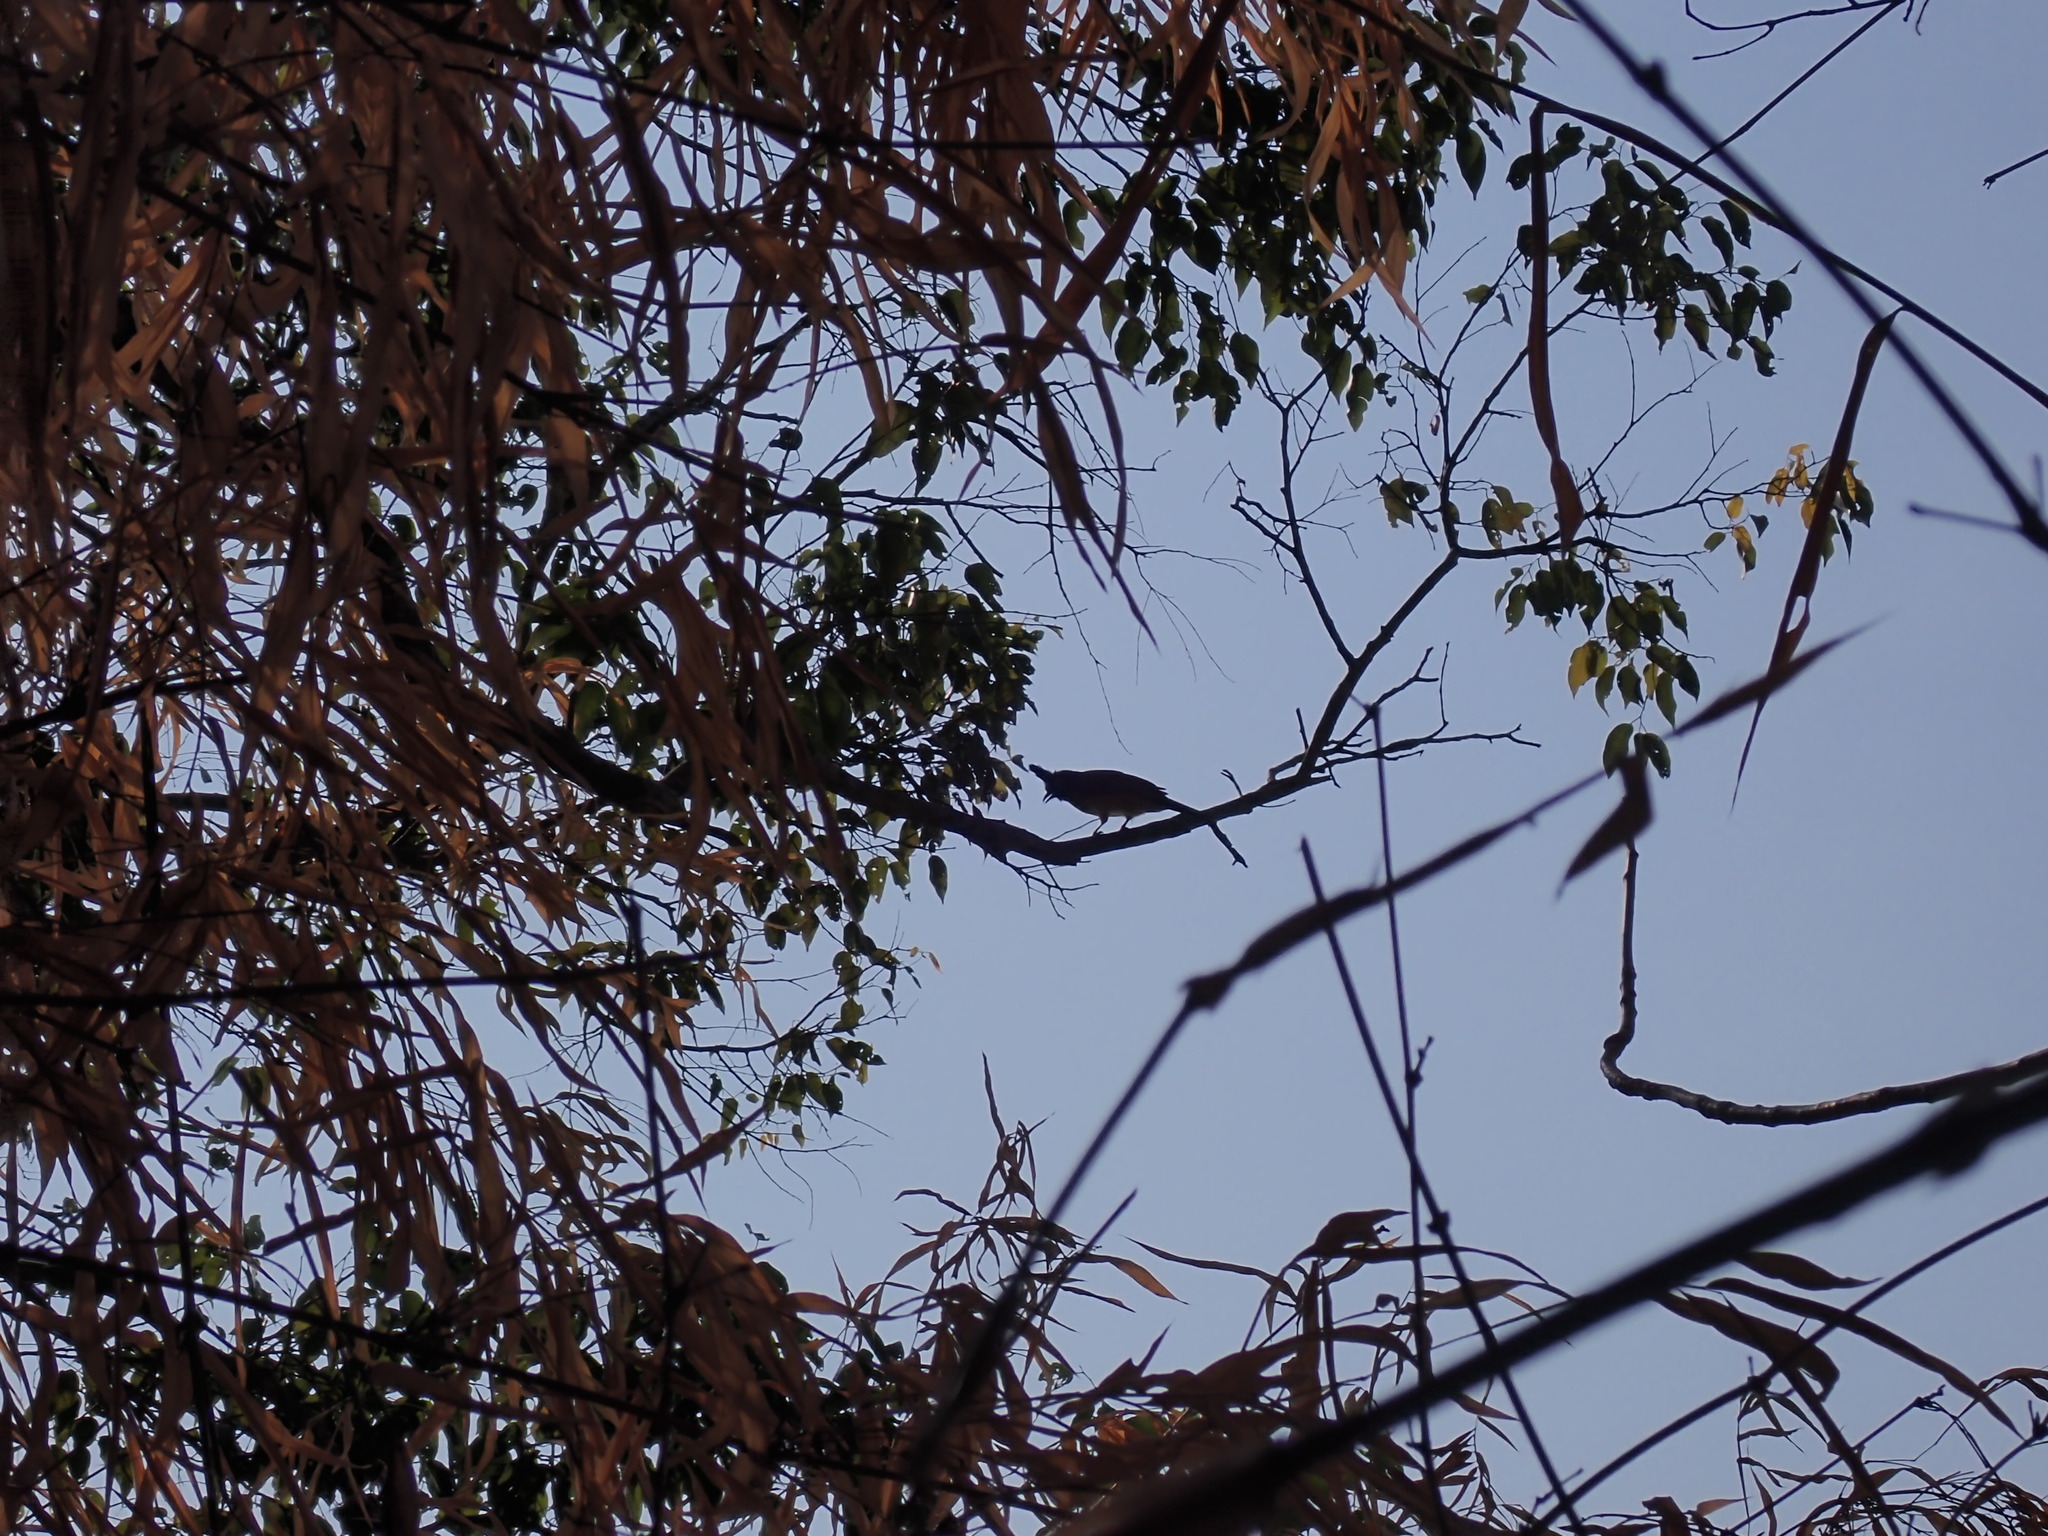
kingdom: Animalia
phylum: Chordata
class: Aves
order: Passeriformes
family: Pycnonotidae
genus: Pycnonotus
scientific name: Pycnonotus flaviventris
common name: Black-crested bulbul
